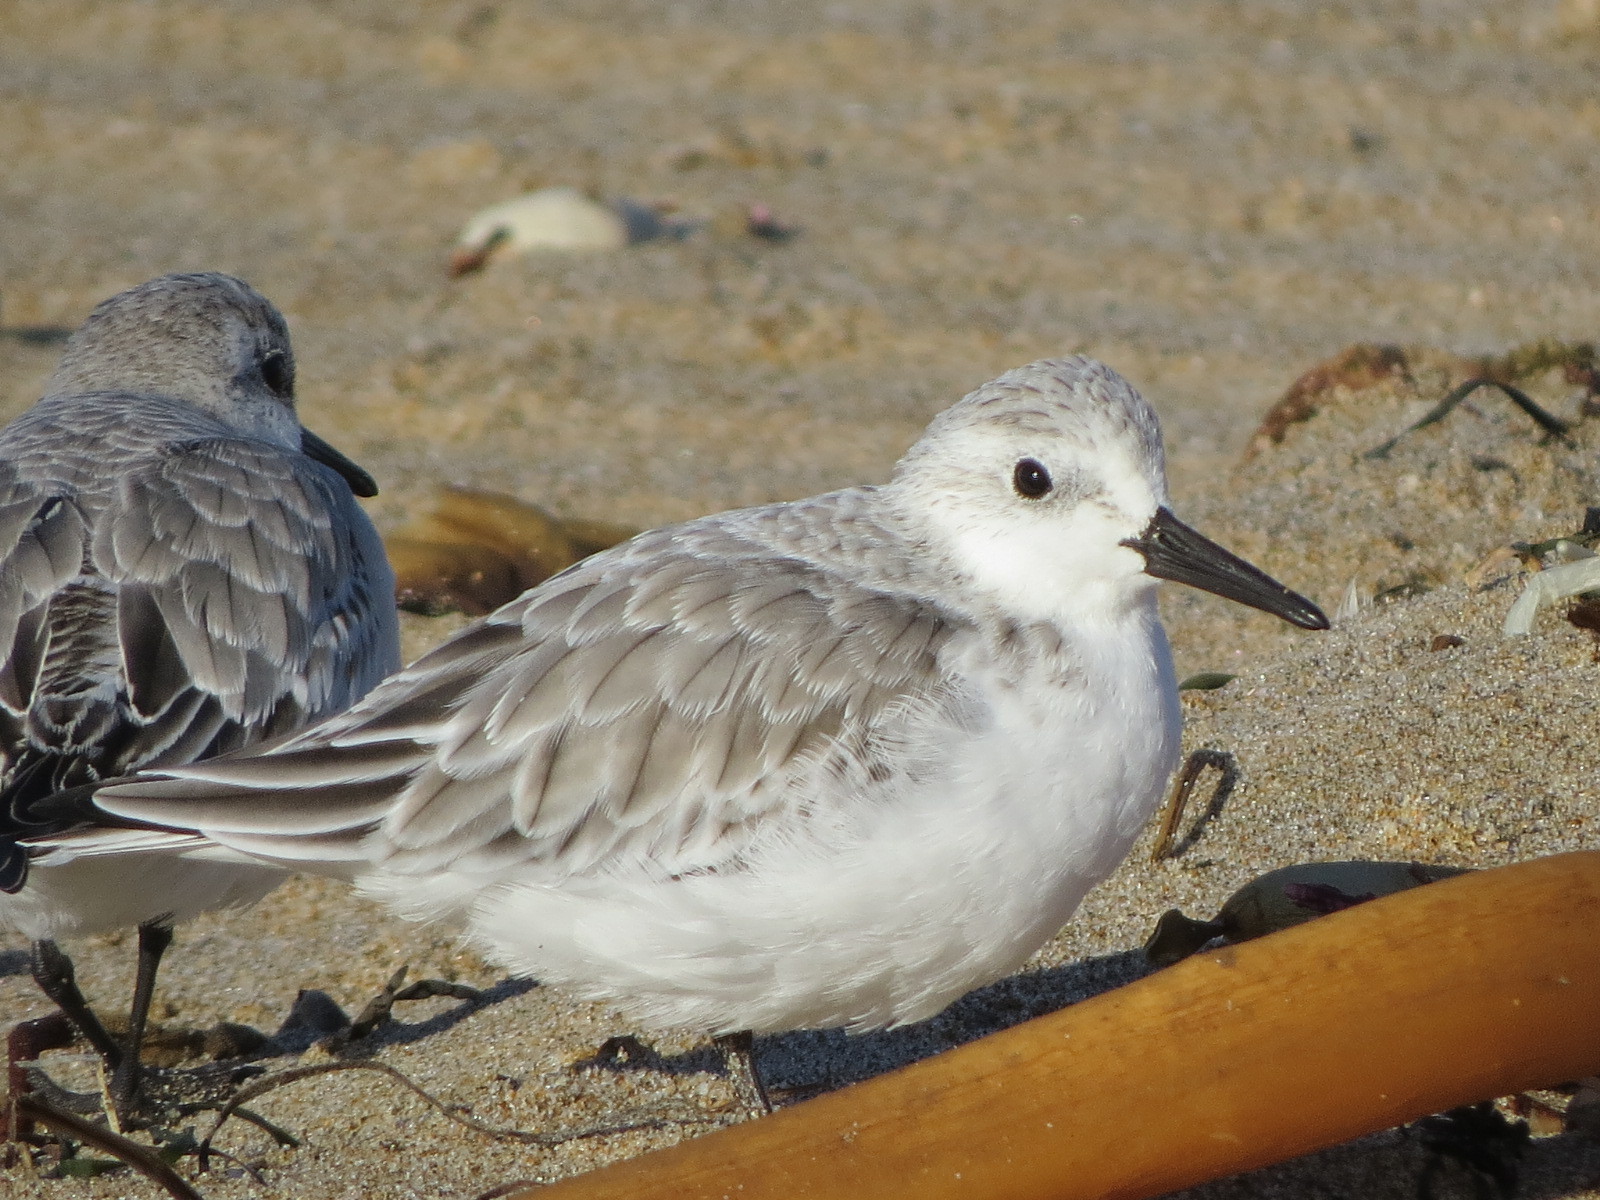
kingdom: Animalia
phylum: Chordata
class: Aves
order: Charadriiformes
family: Scolopacidae
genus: Calidris
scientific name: Calidris alba
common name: Sanderling
